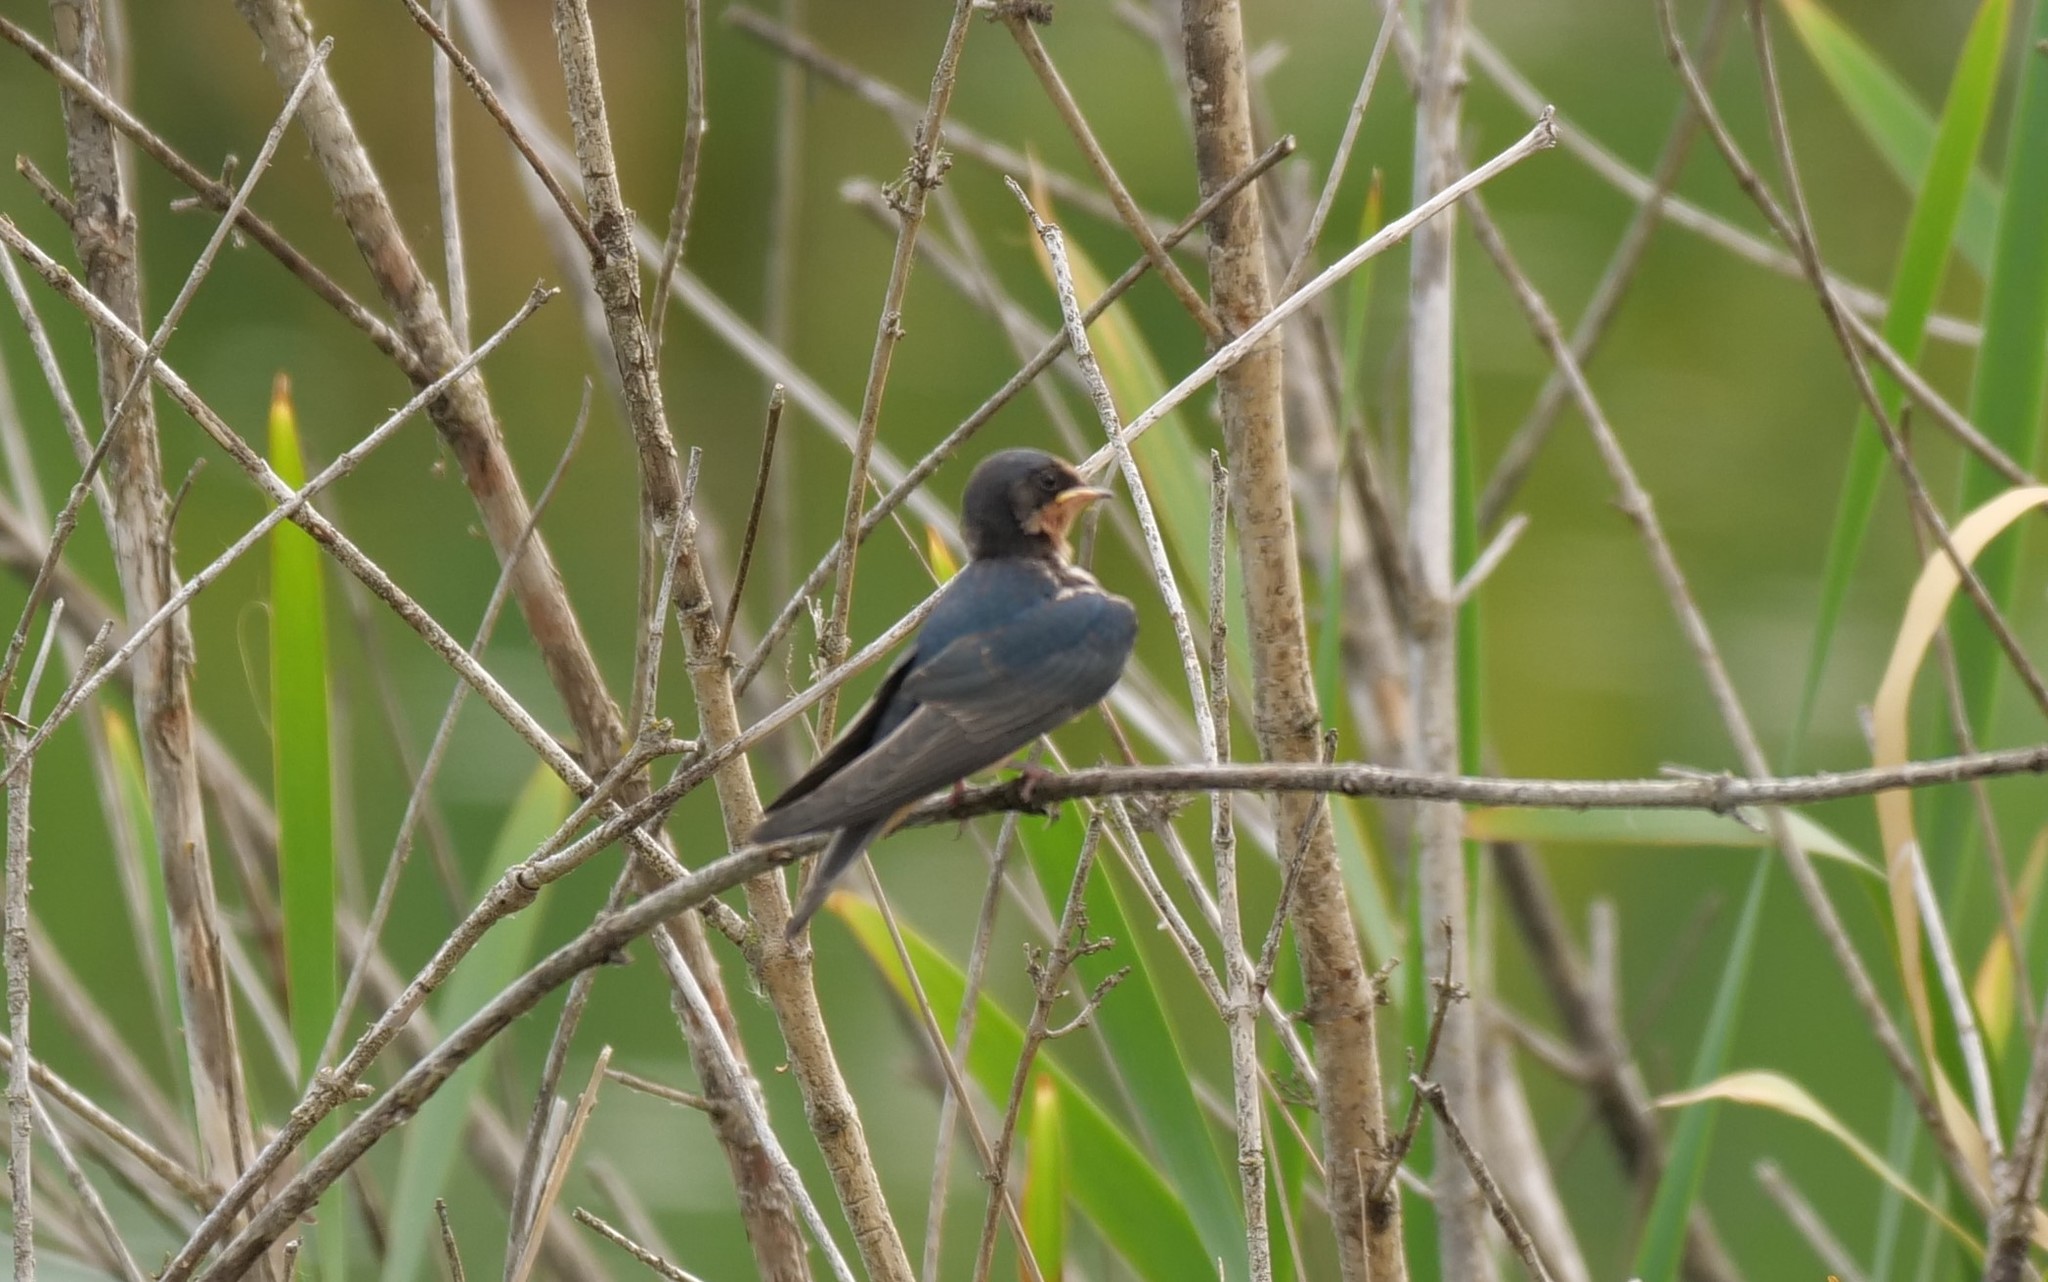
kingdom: Animalia
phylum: Chordata
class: Aves
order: Passeriformes
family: Hirundinidae
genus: Hirundo
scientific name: Hirundo rustica
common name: Barn swallow
